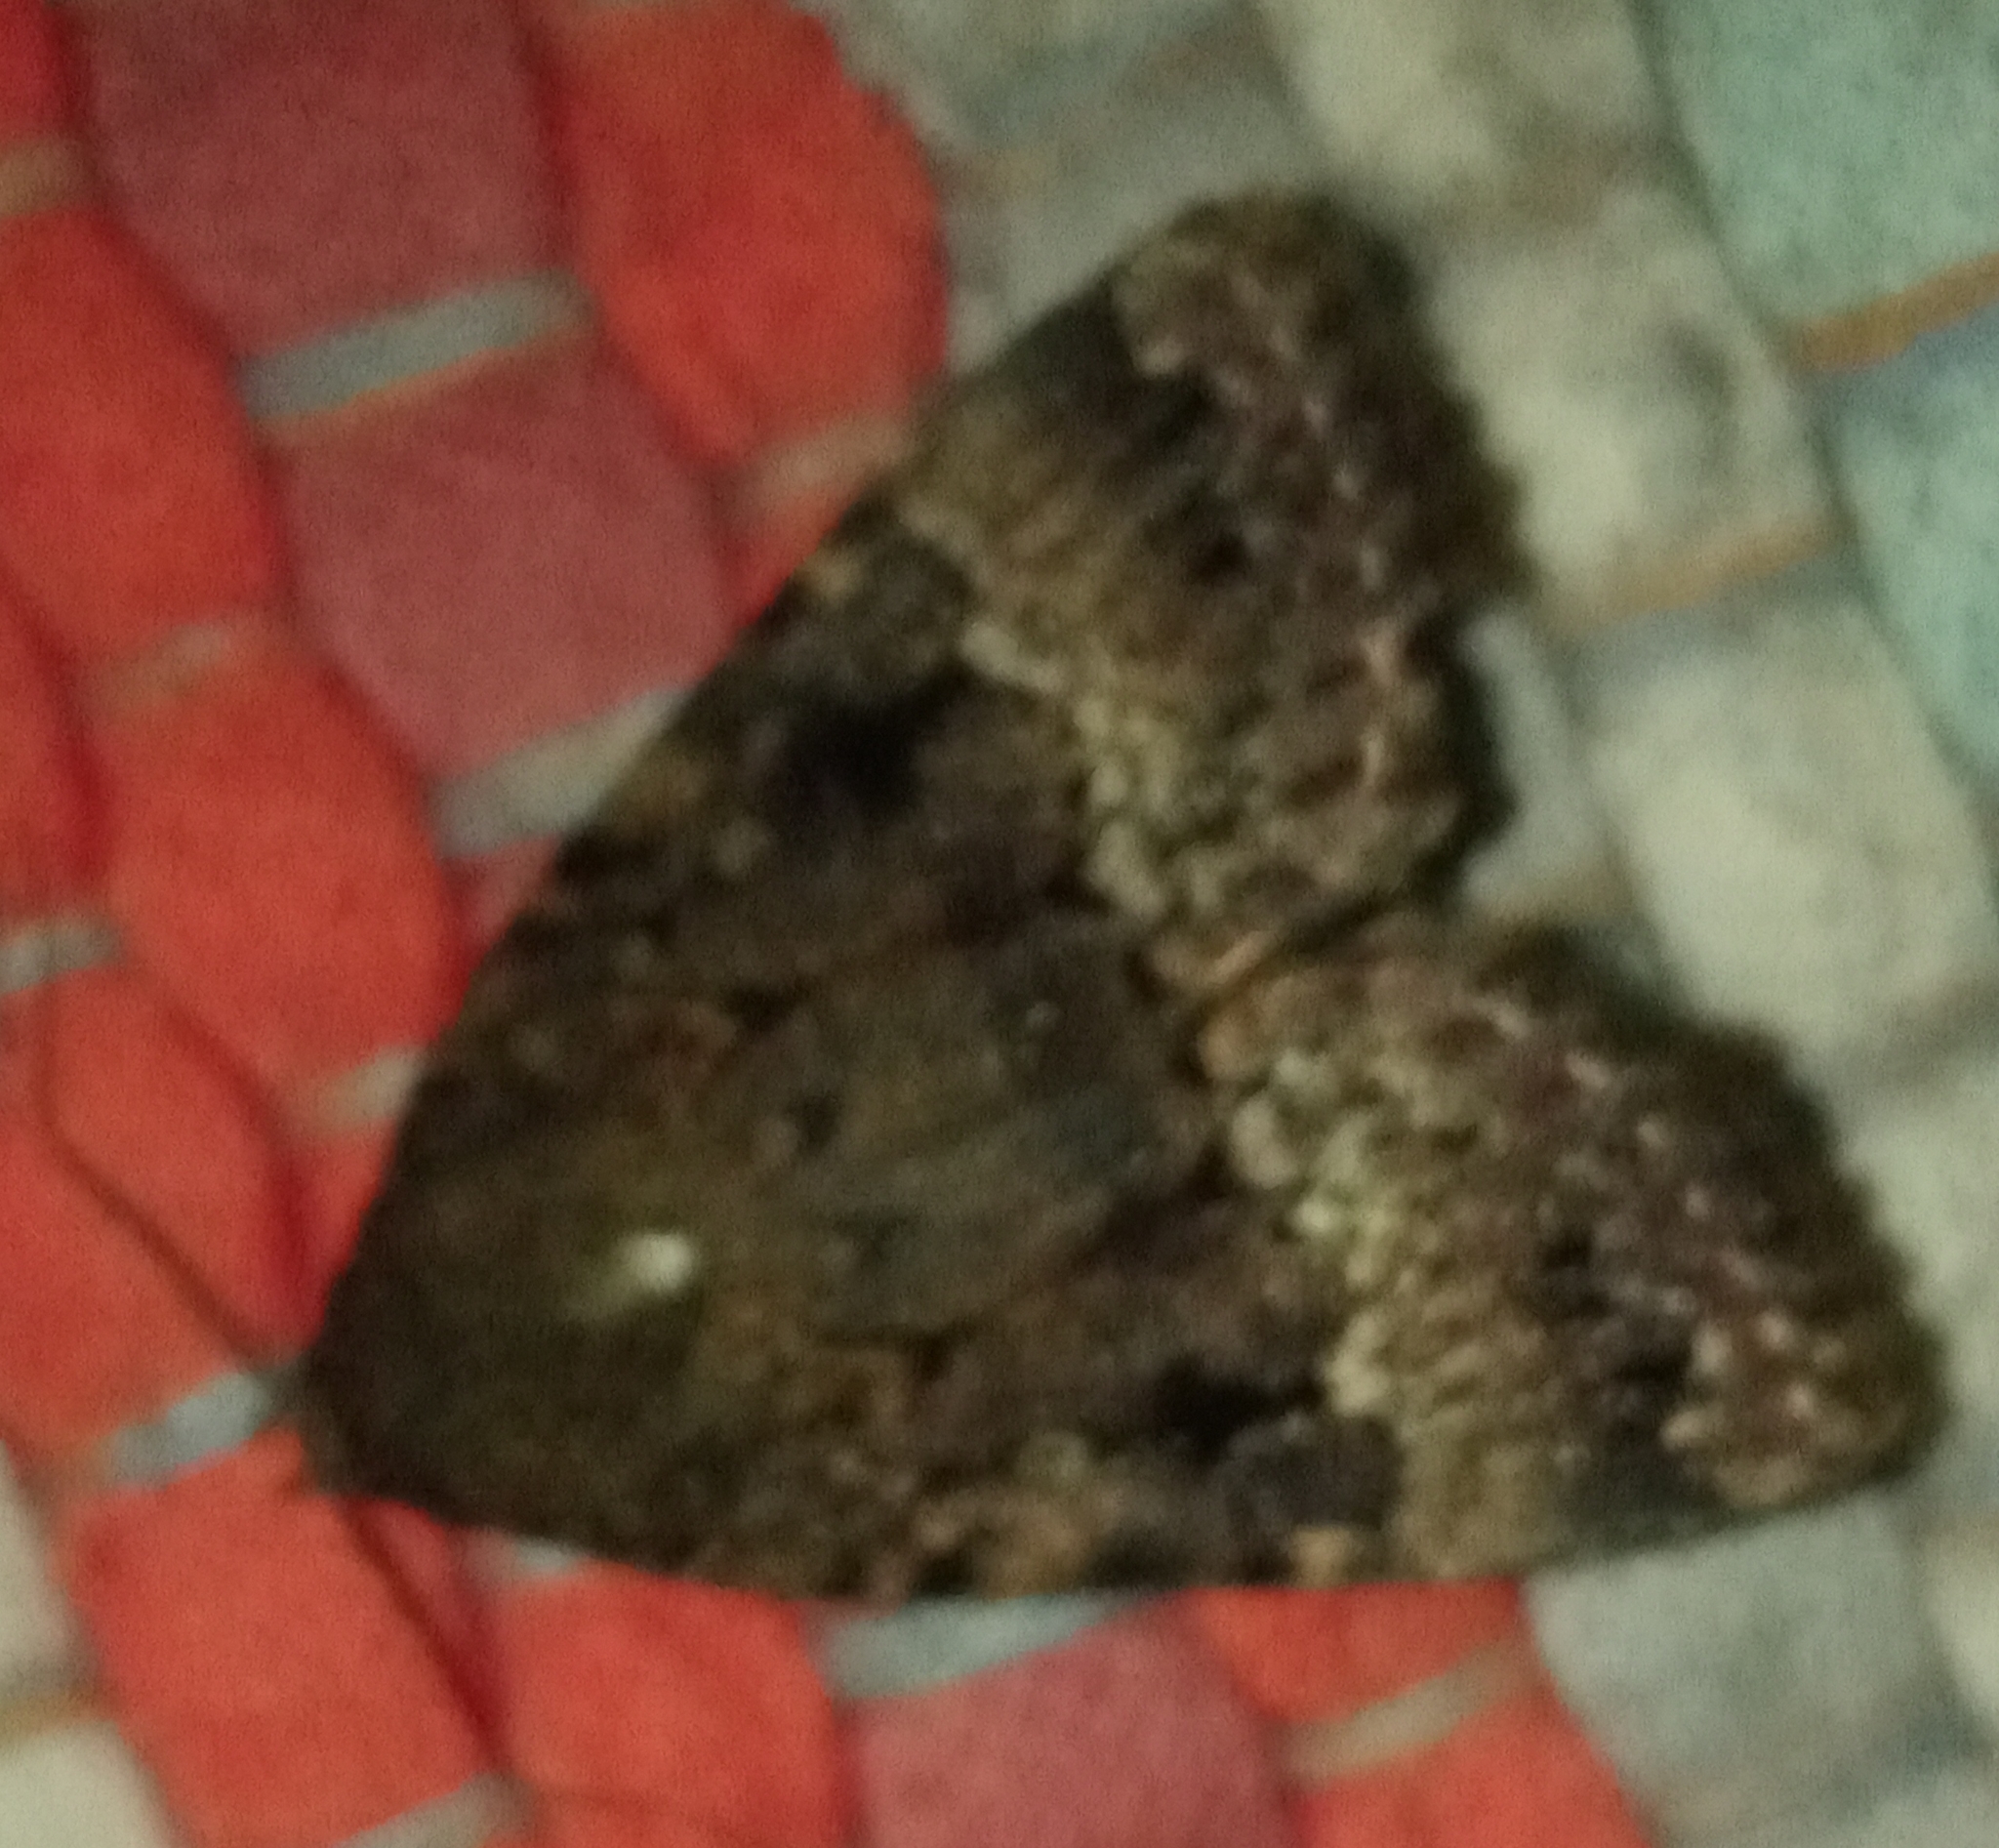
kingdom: Animalia
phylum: Arthropoda
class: Insecta
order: Lepidoptera
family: Noctuidae
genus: Amphipyra
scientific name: Amphipyra pyramidea
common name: Copper underwing
